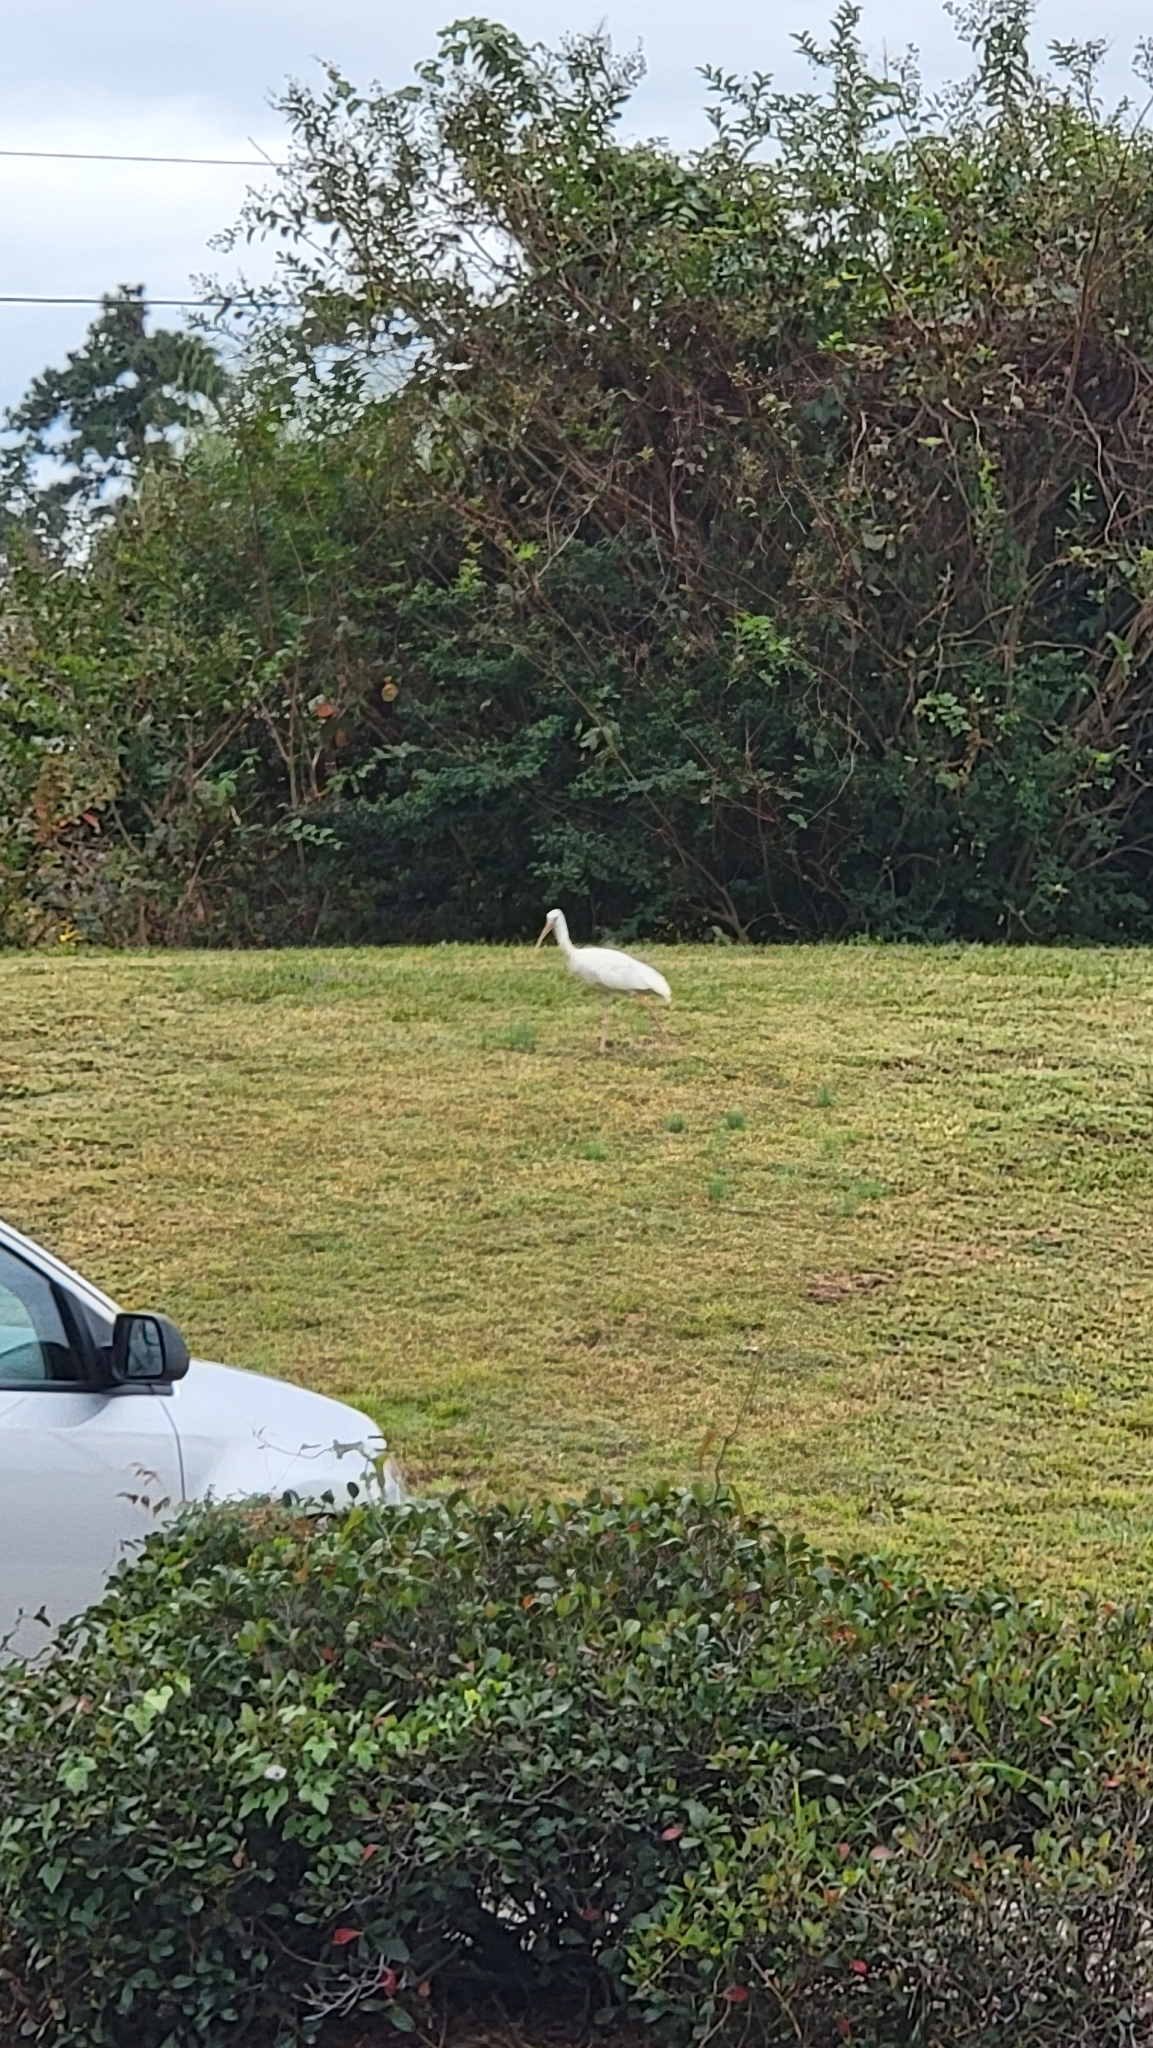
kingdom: Animalia
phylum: Chordata
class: Aves
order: Pelecaniformes
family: Threskiornithidae
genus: Eudocimus
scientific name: Eudocimus albus
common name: White ibis
